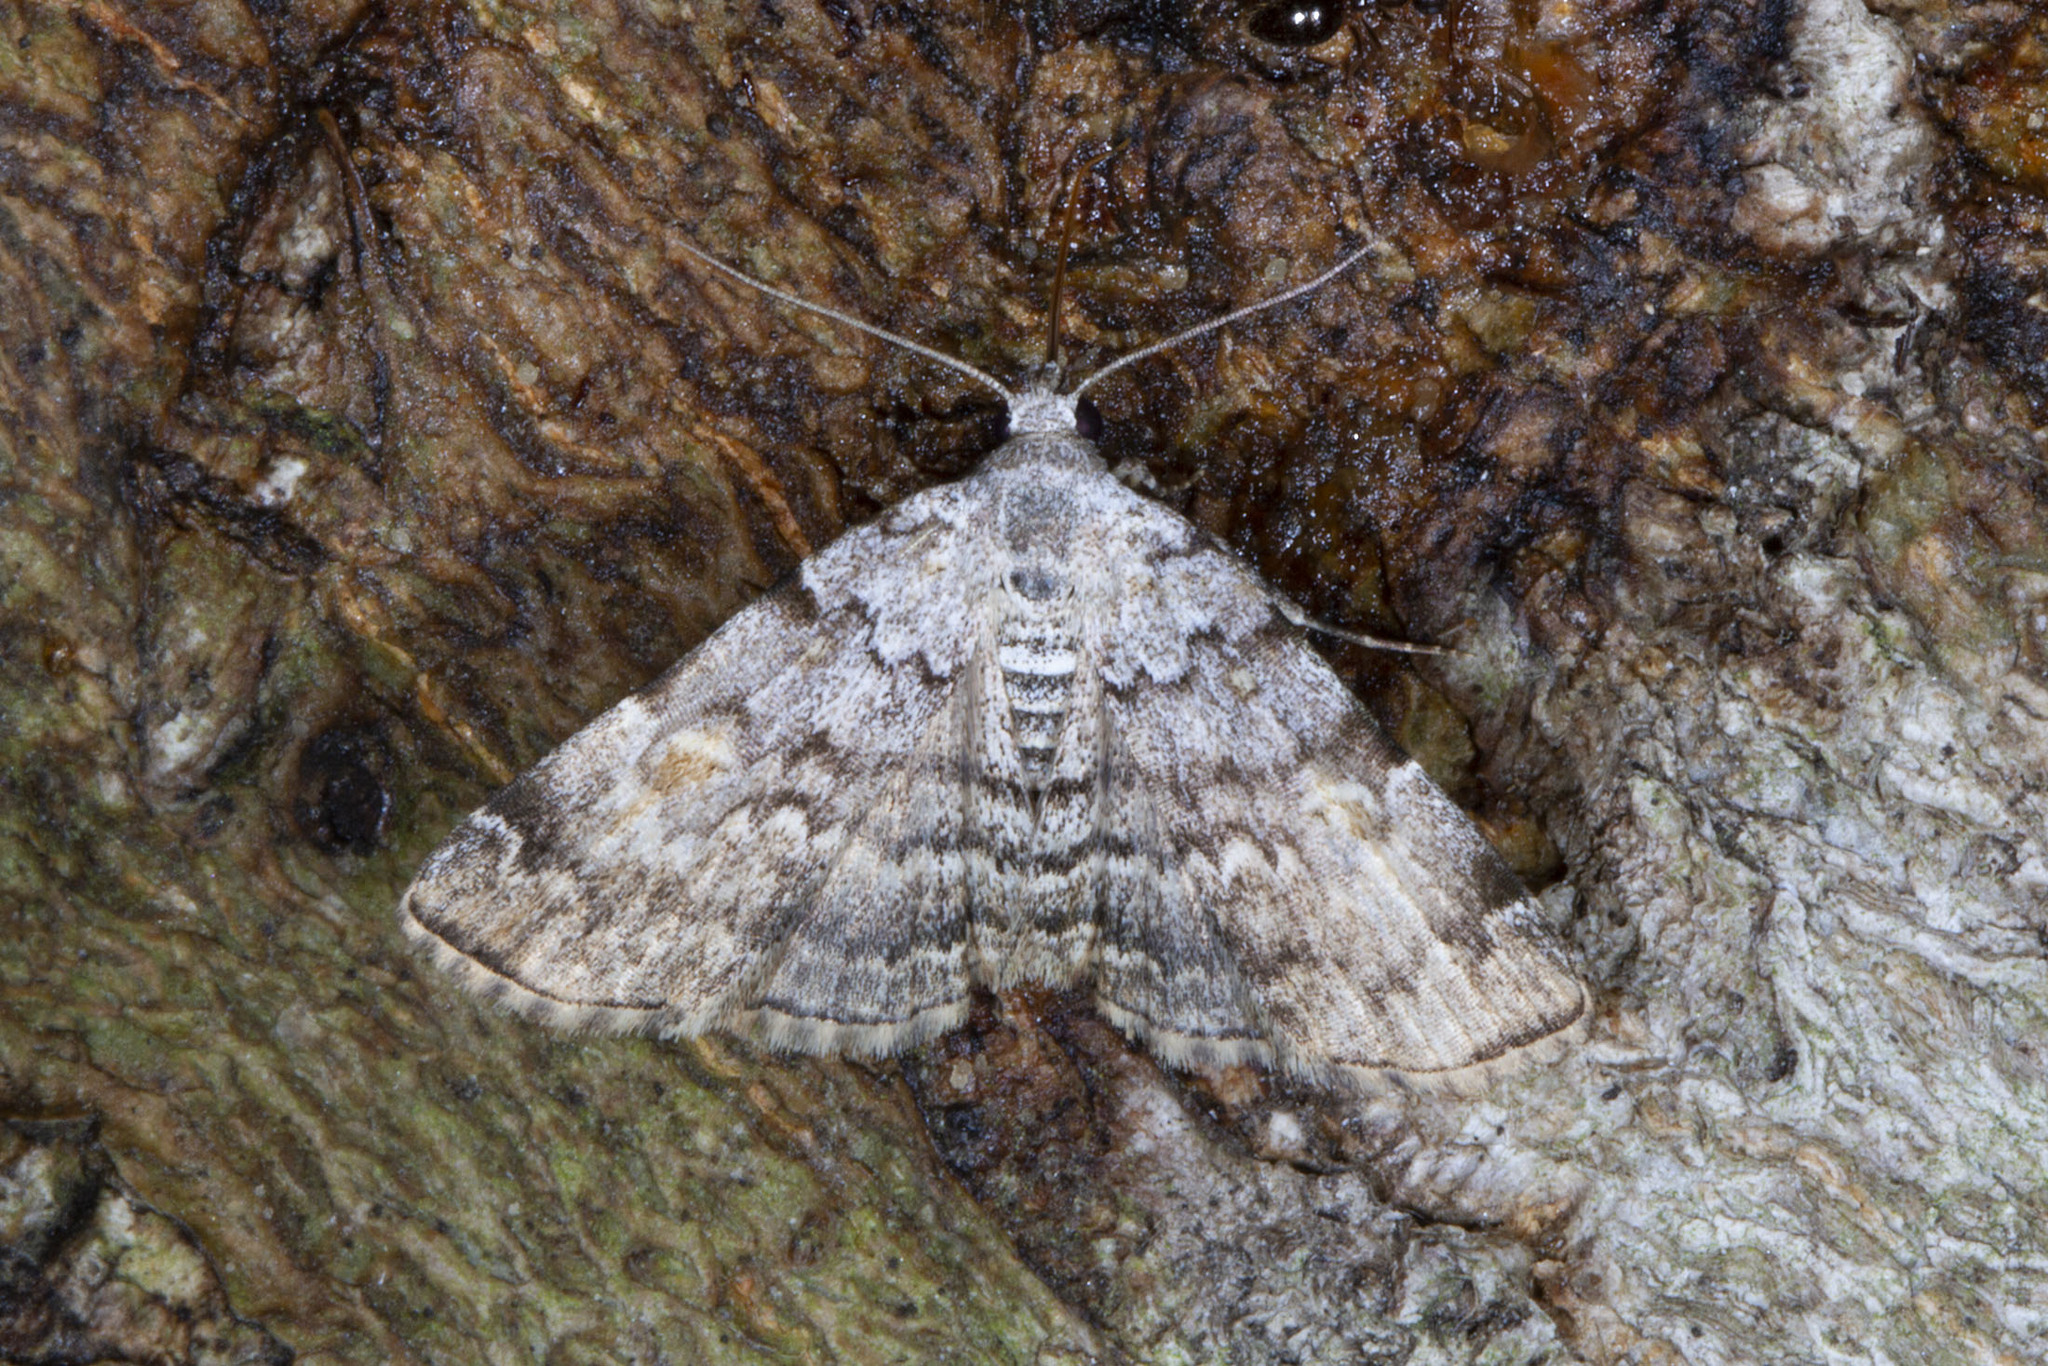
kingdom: Animalia
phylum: Arthropoda
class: Insecta
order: Lepidoptera
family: Erebidae
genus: Idia
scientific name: Idia americalis
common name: American idia moth
